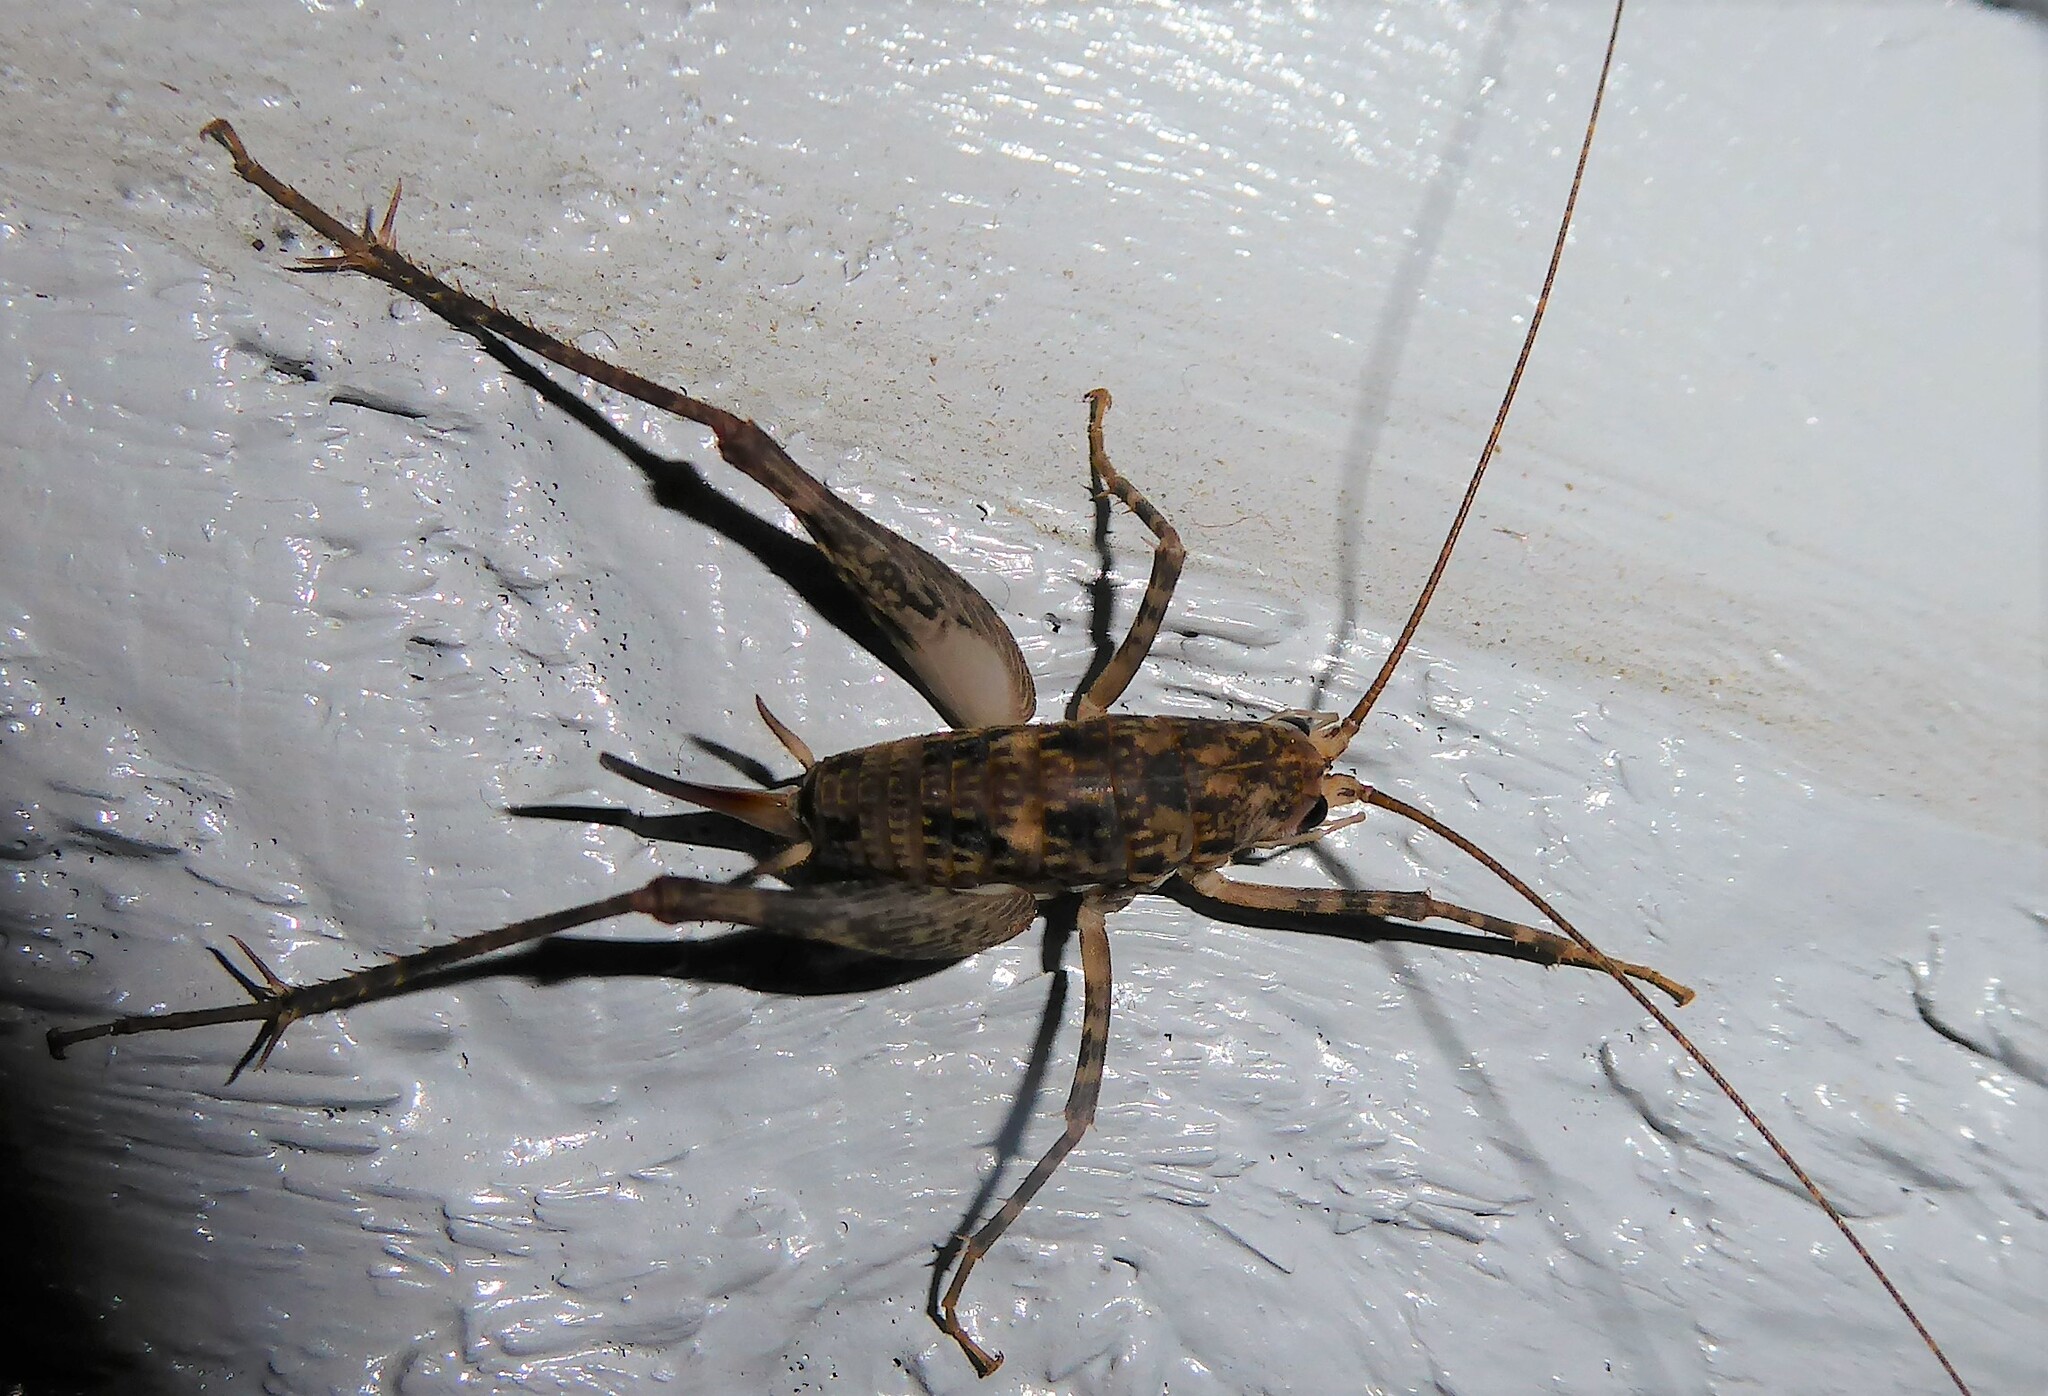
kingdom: Animalia
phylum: Arthropoda
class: Insecta
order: Orthoptera
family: Rhaphidophoridae
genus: Pleioplectron
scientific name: Pleioplectron simplex
